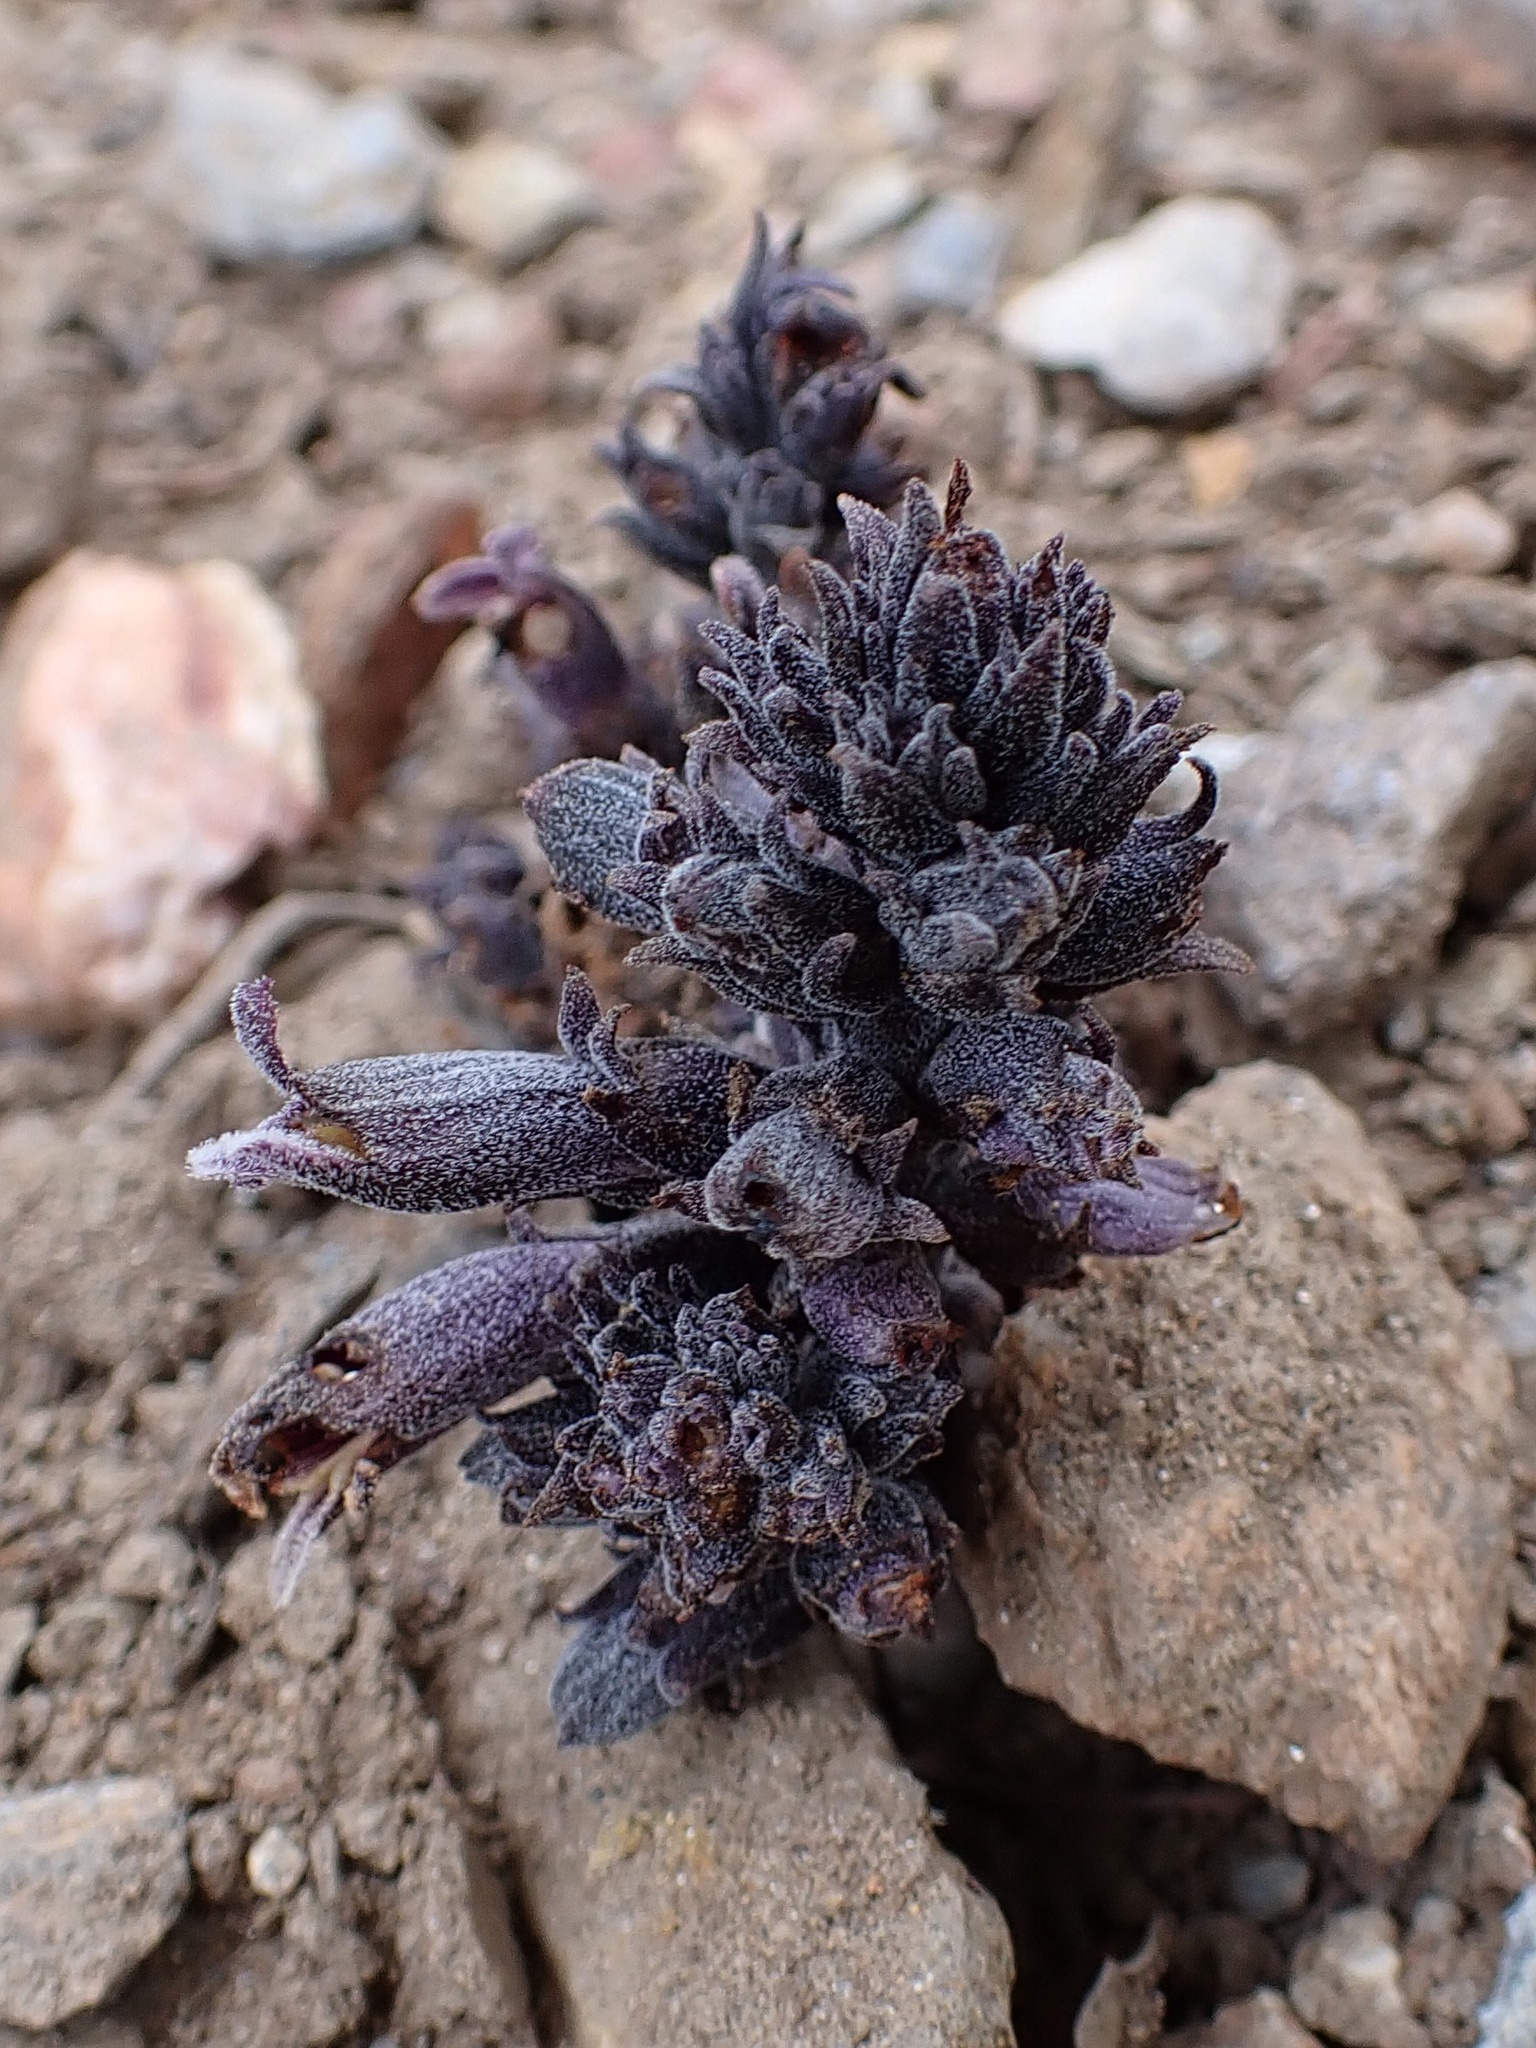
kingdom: Plantae
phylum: Tracheophyta
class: Magnoliopsida
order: Lamiales
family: Orobanchaceae
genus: Aphyllon
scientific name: Aphyllon tuberosum
